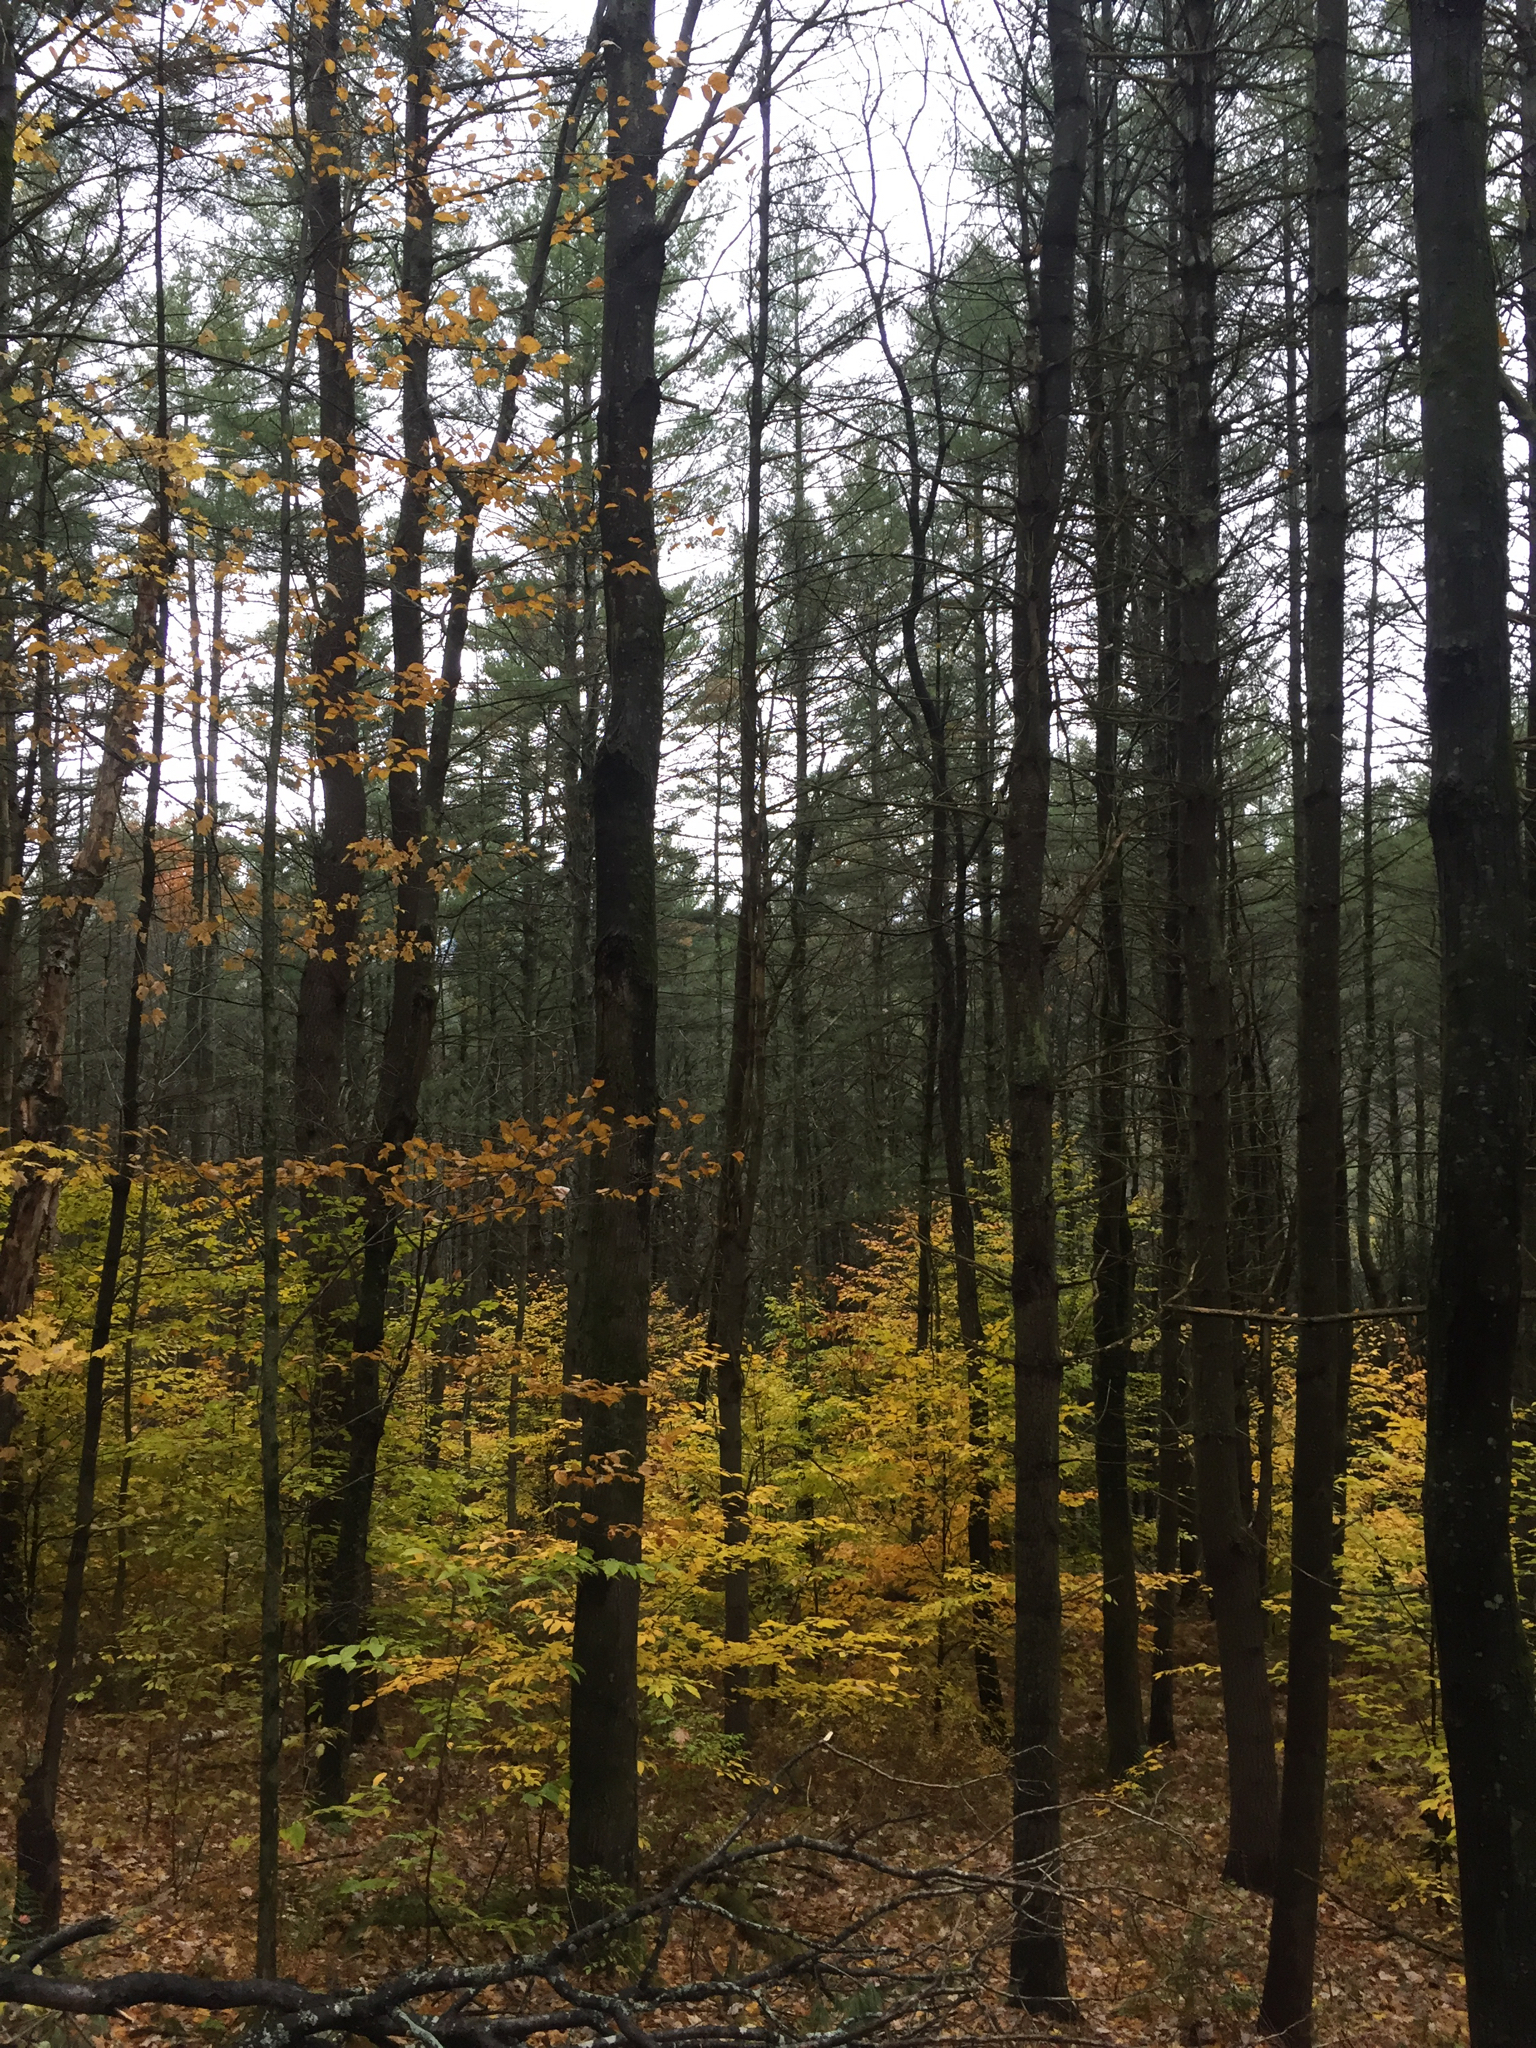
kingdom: Plantae
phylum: Tracheophyta
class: Magnoliopsida
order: Fagales
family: Fagaceae
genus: Fagus
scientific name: Fagus grandifolia
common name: American beech
